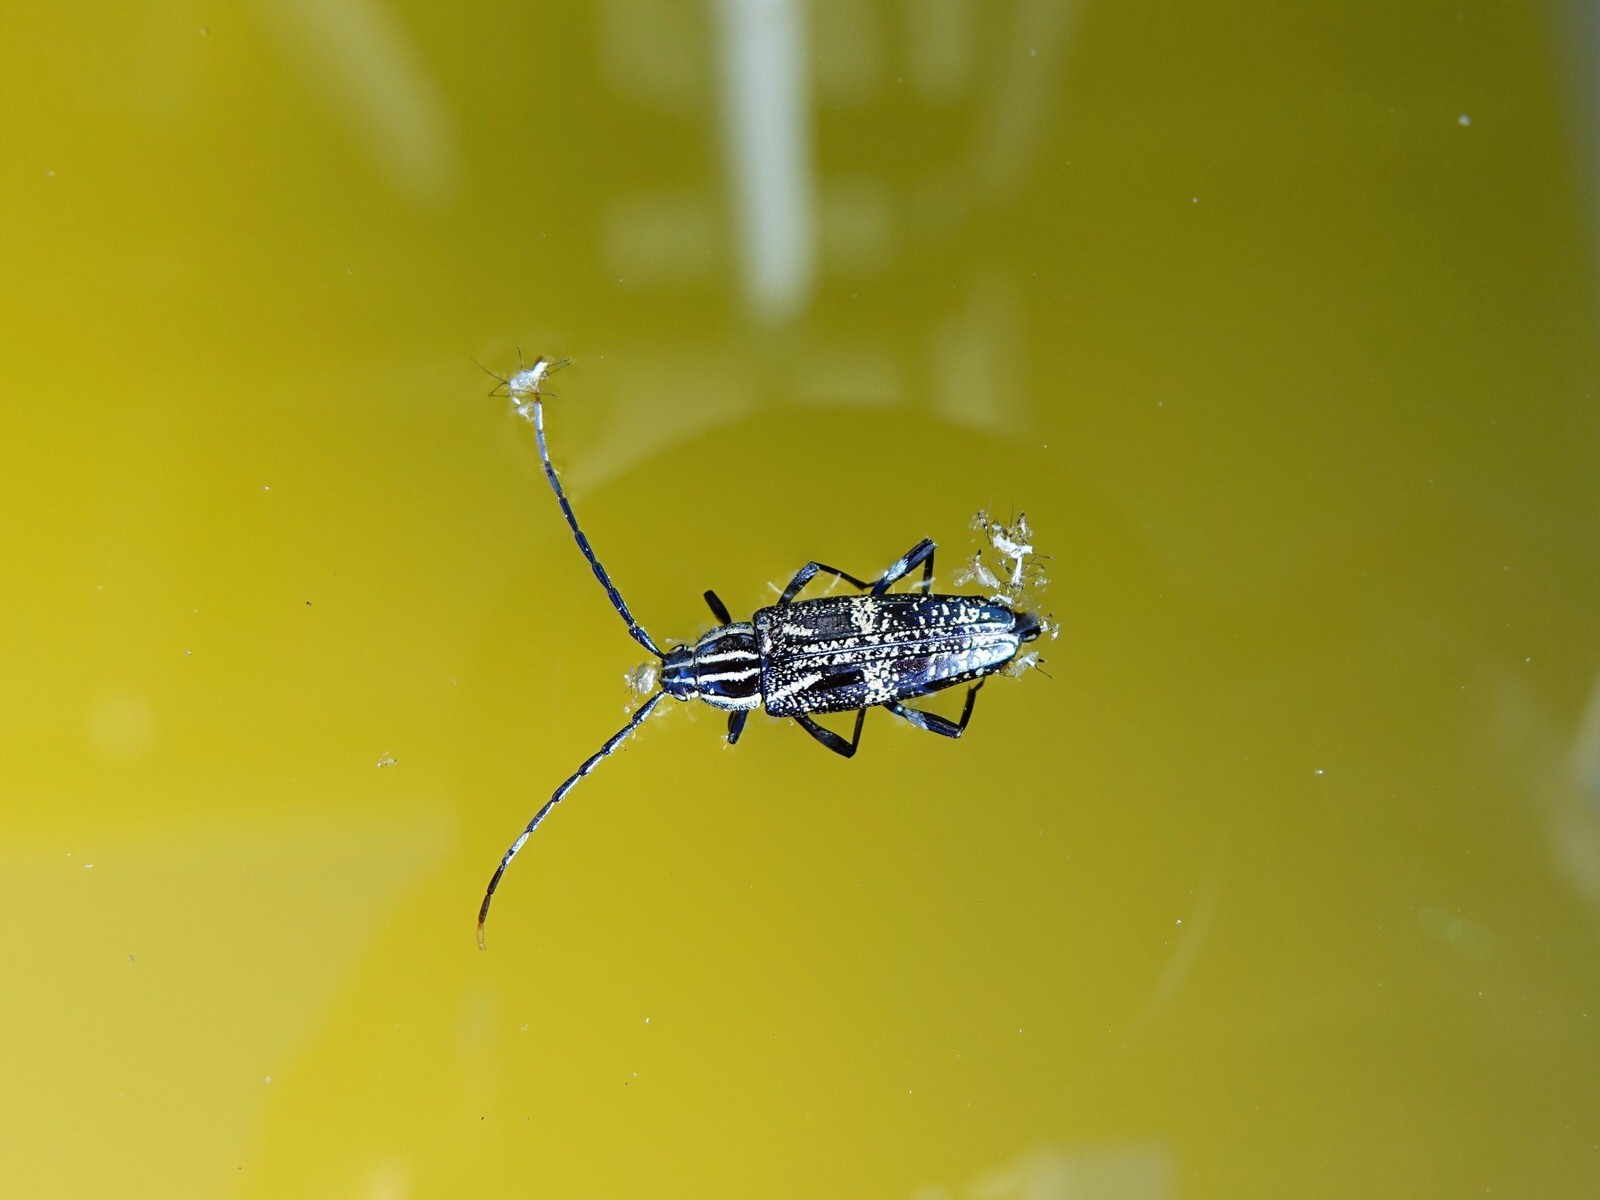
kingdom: Animalia
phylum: Arthropoda
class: Insecta
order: Coleoptera
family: Cerambycidae
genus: Coptomma
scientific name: Coptomma variegatum
